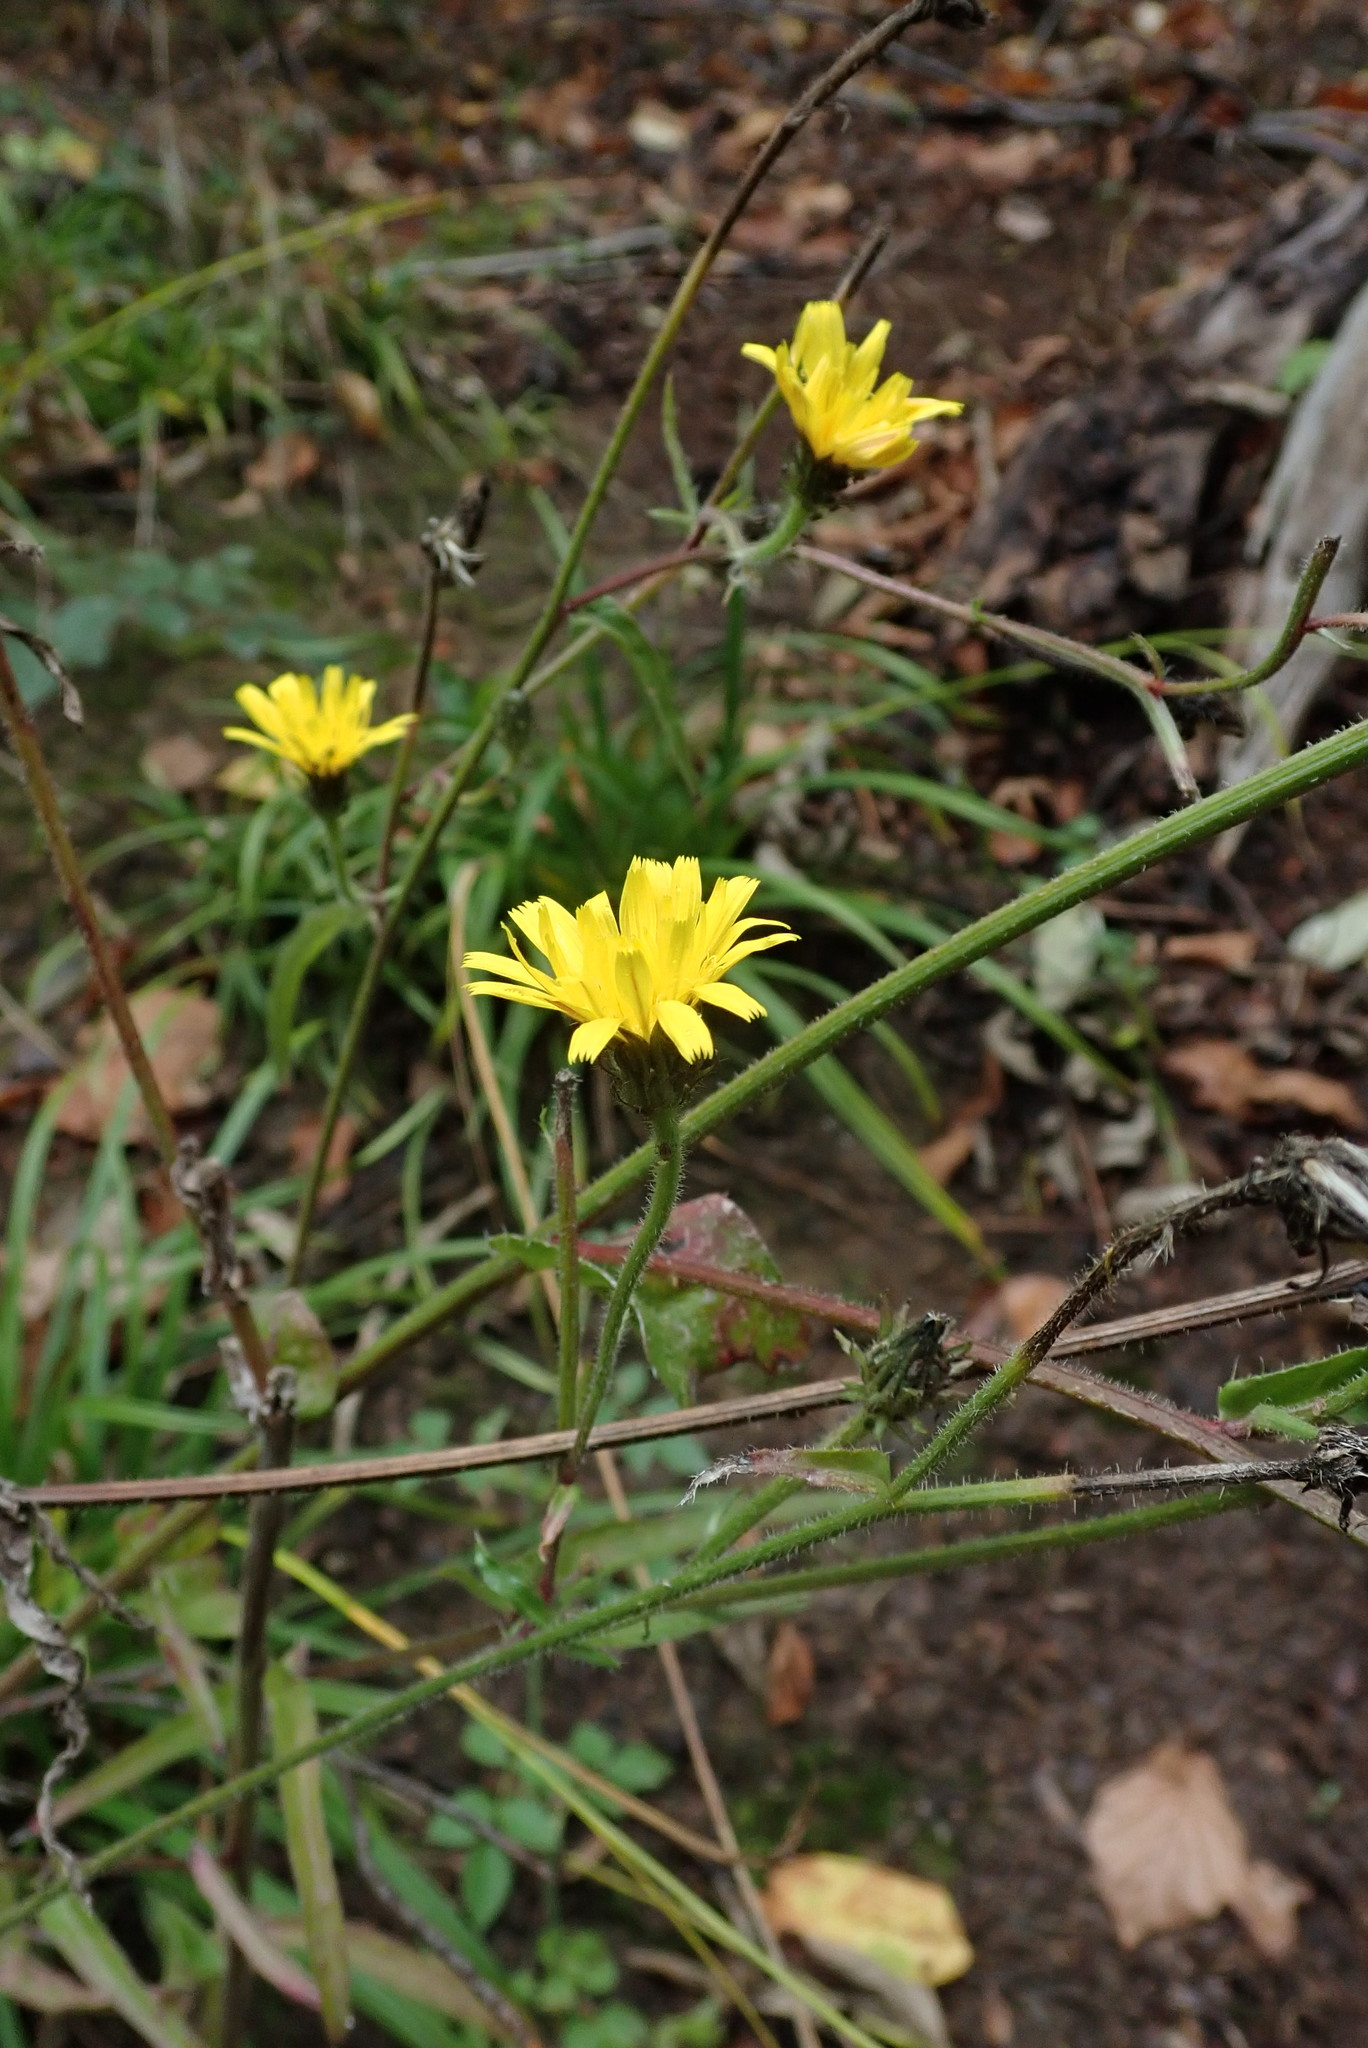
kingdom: Plantae
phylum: Tracheophyta
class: Magnoliopsida
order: Asterales
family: Asteraceae
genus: Picris
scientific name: Picris hieracioides
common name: Hawkweed oxtongue
